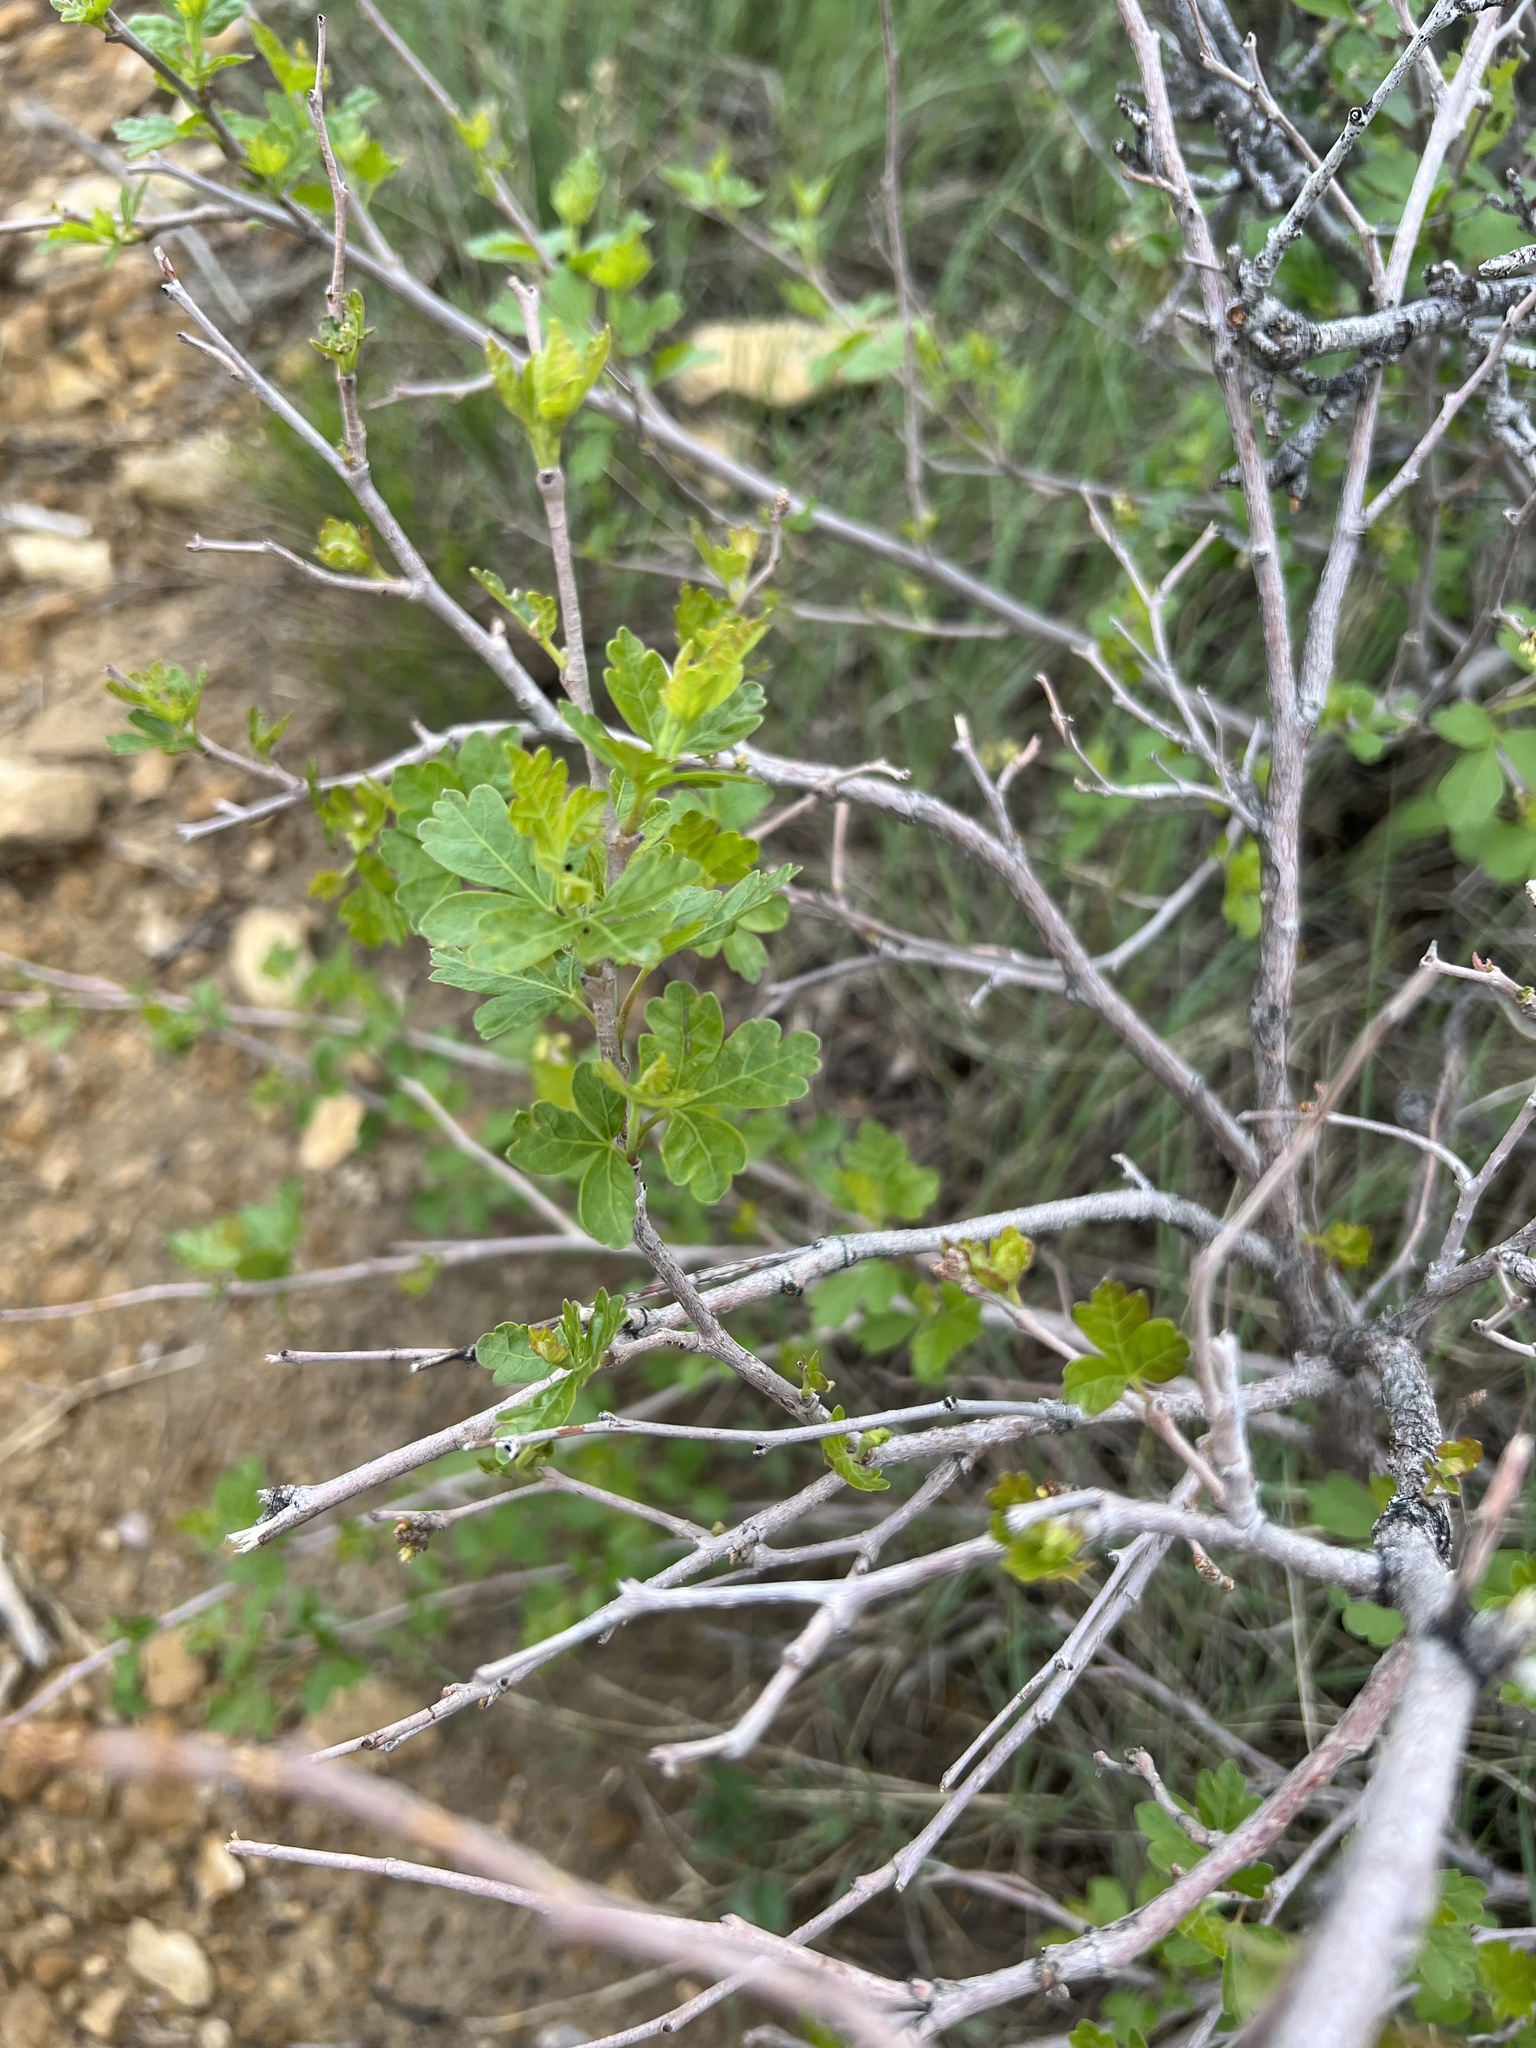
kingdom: Plantae
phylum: Tracheophyta
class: Magnoliopsida
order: Sapindales
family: Anacardiaceae
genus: Rhus
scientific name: Rhus trilobata
